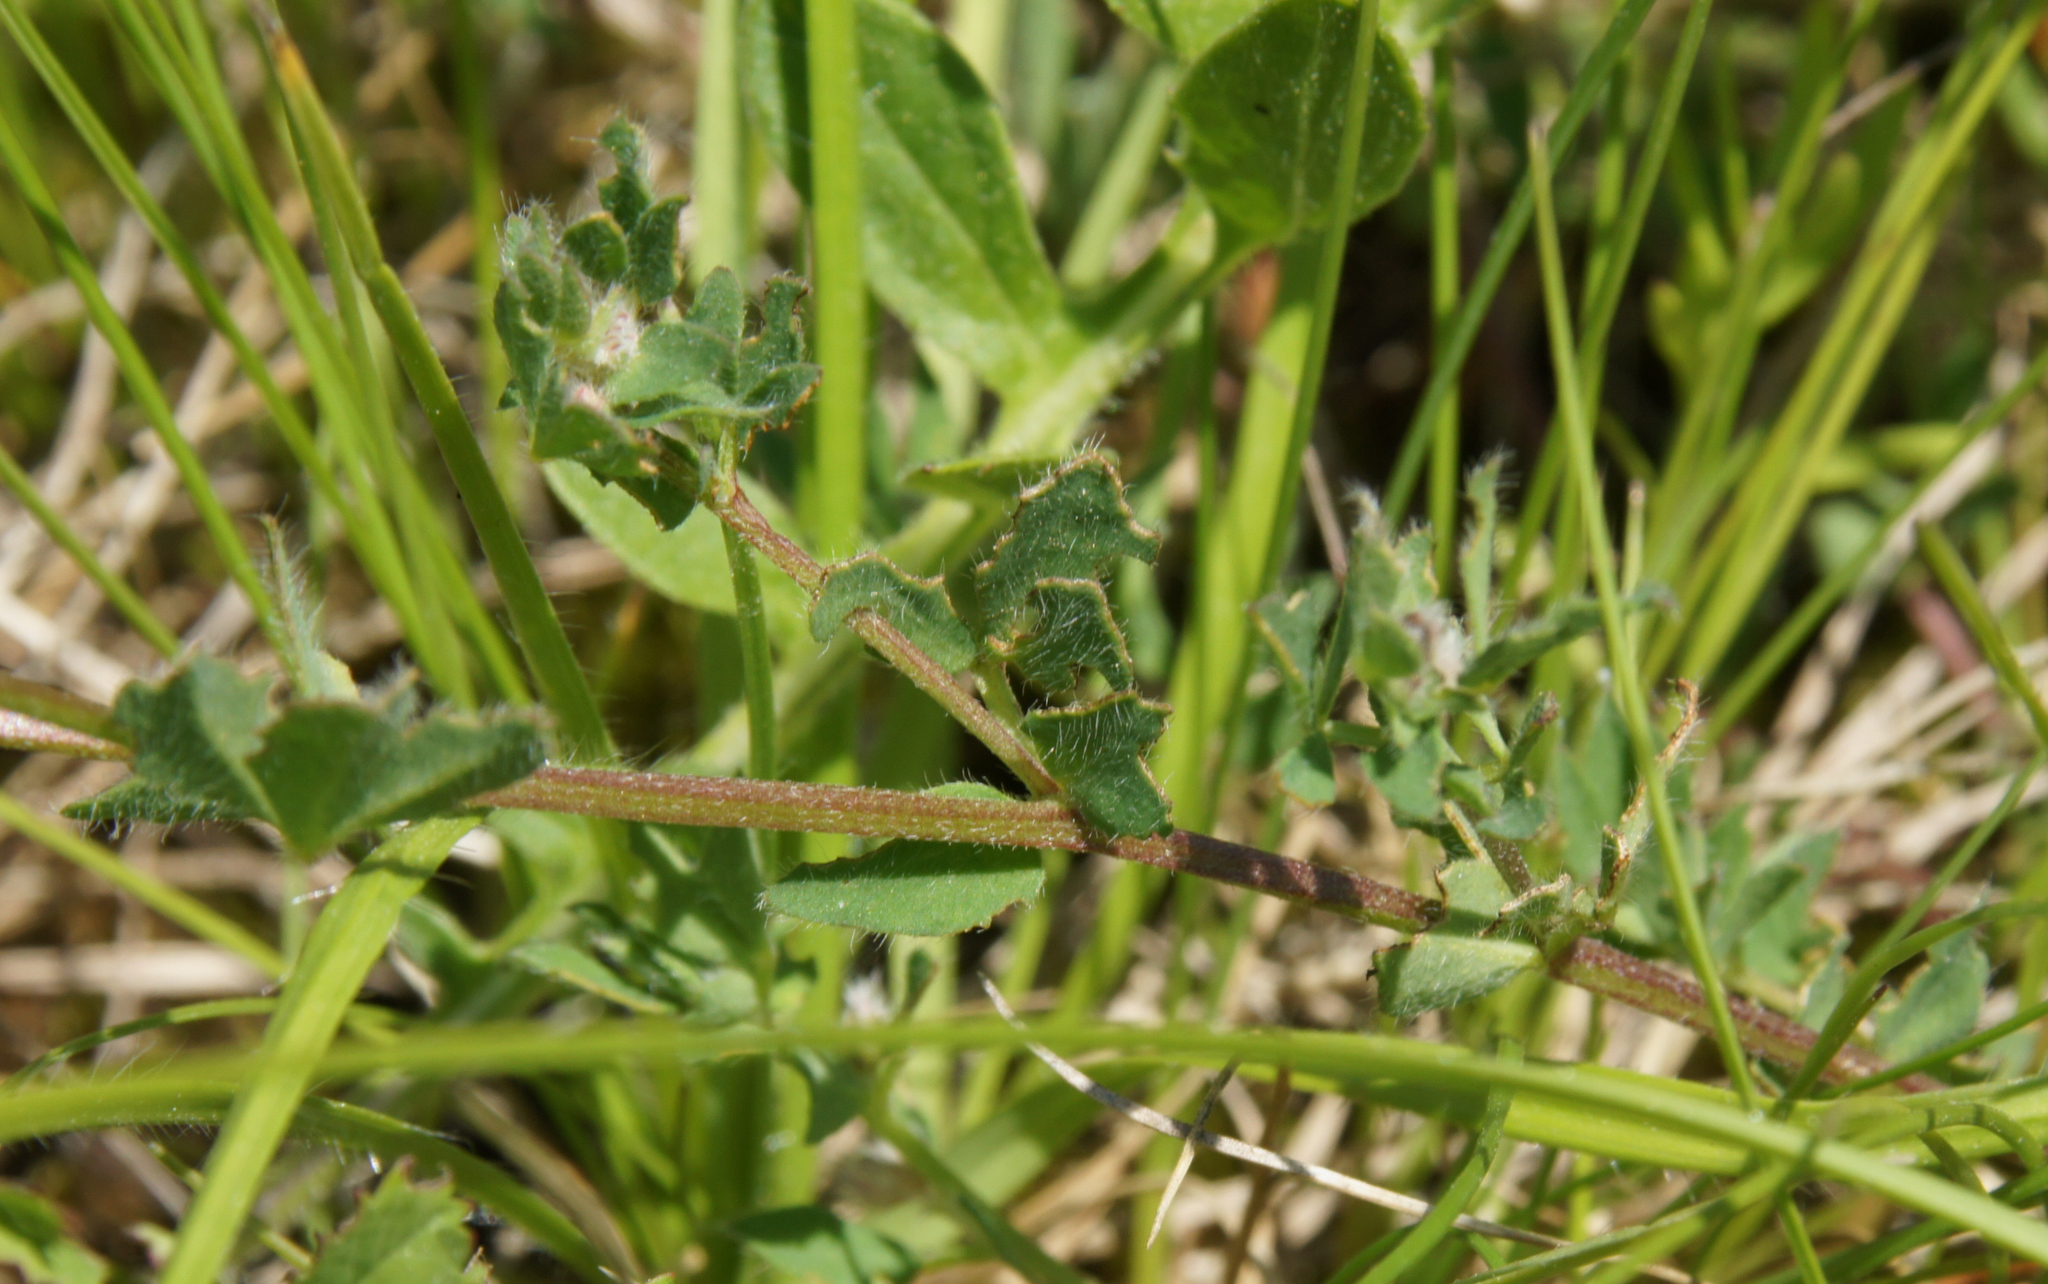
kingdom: Plantae
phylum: Tracheophyta
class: Magnoliopsida
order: Fabales
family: Fabaceae
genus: Lotus
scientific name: Lotus corniculatus
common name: Common bird's-foot-trefoil
